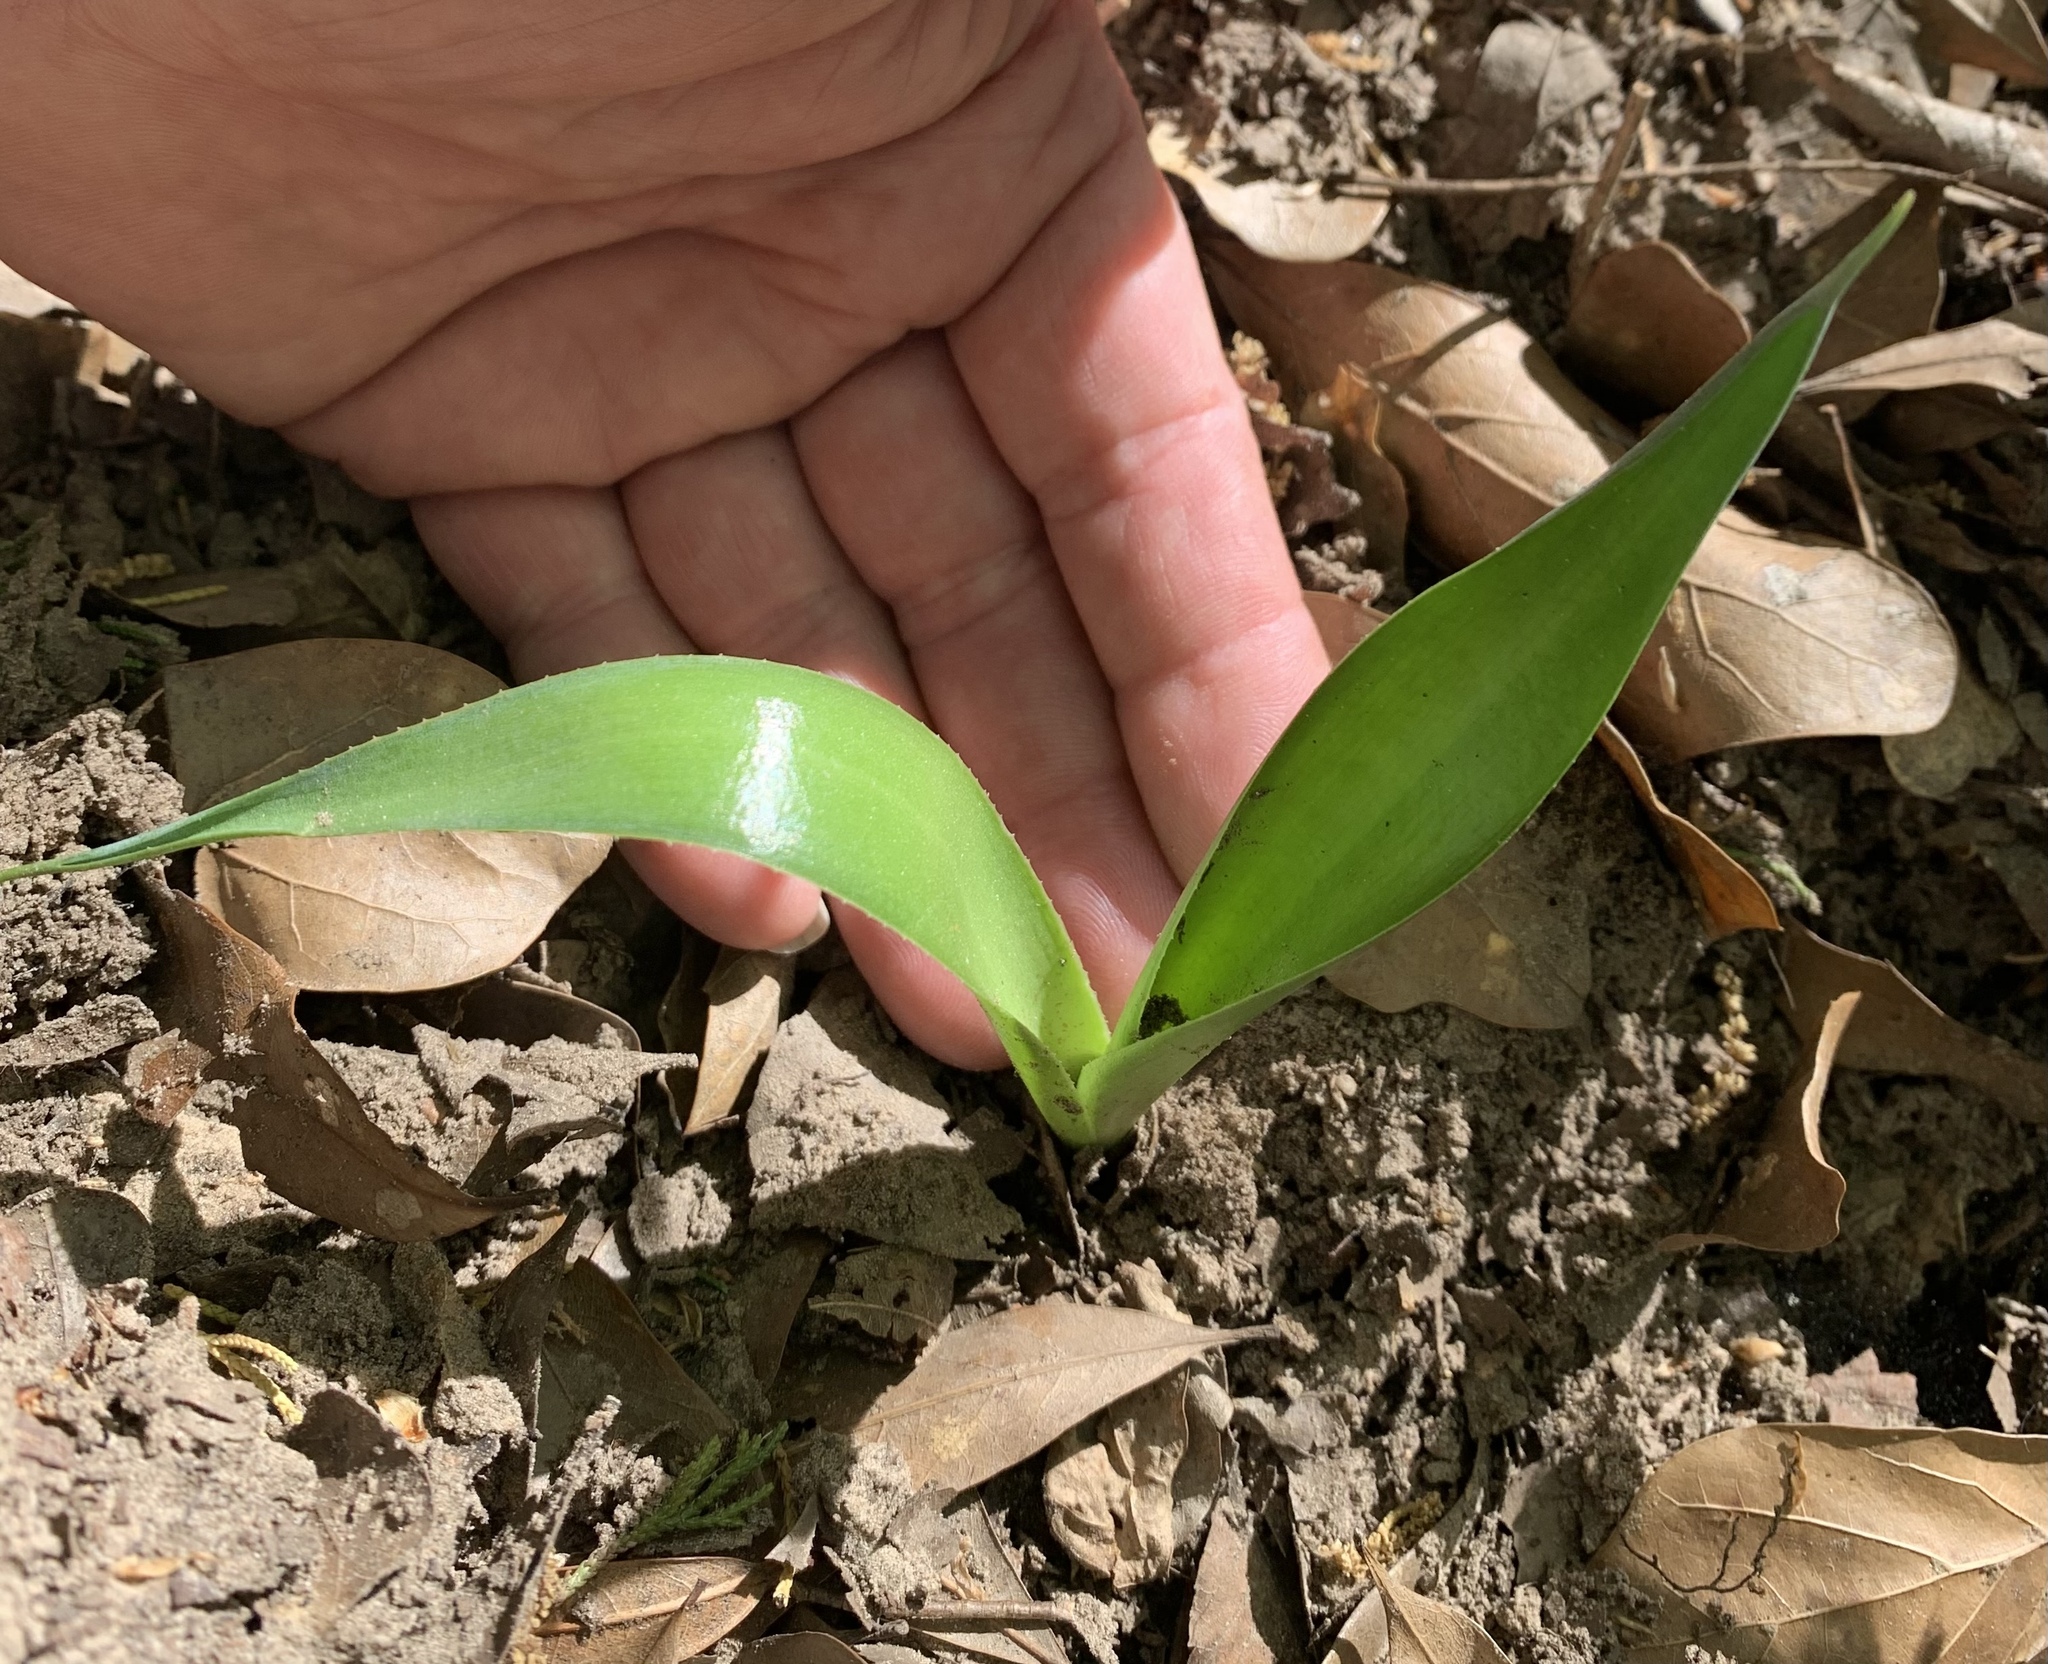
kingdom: Plantae
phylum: Tracheophyta
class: Liliopsida
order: Asparagales
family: Asparagaceae
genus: Agave
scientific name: Agave virginica
